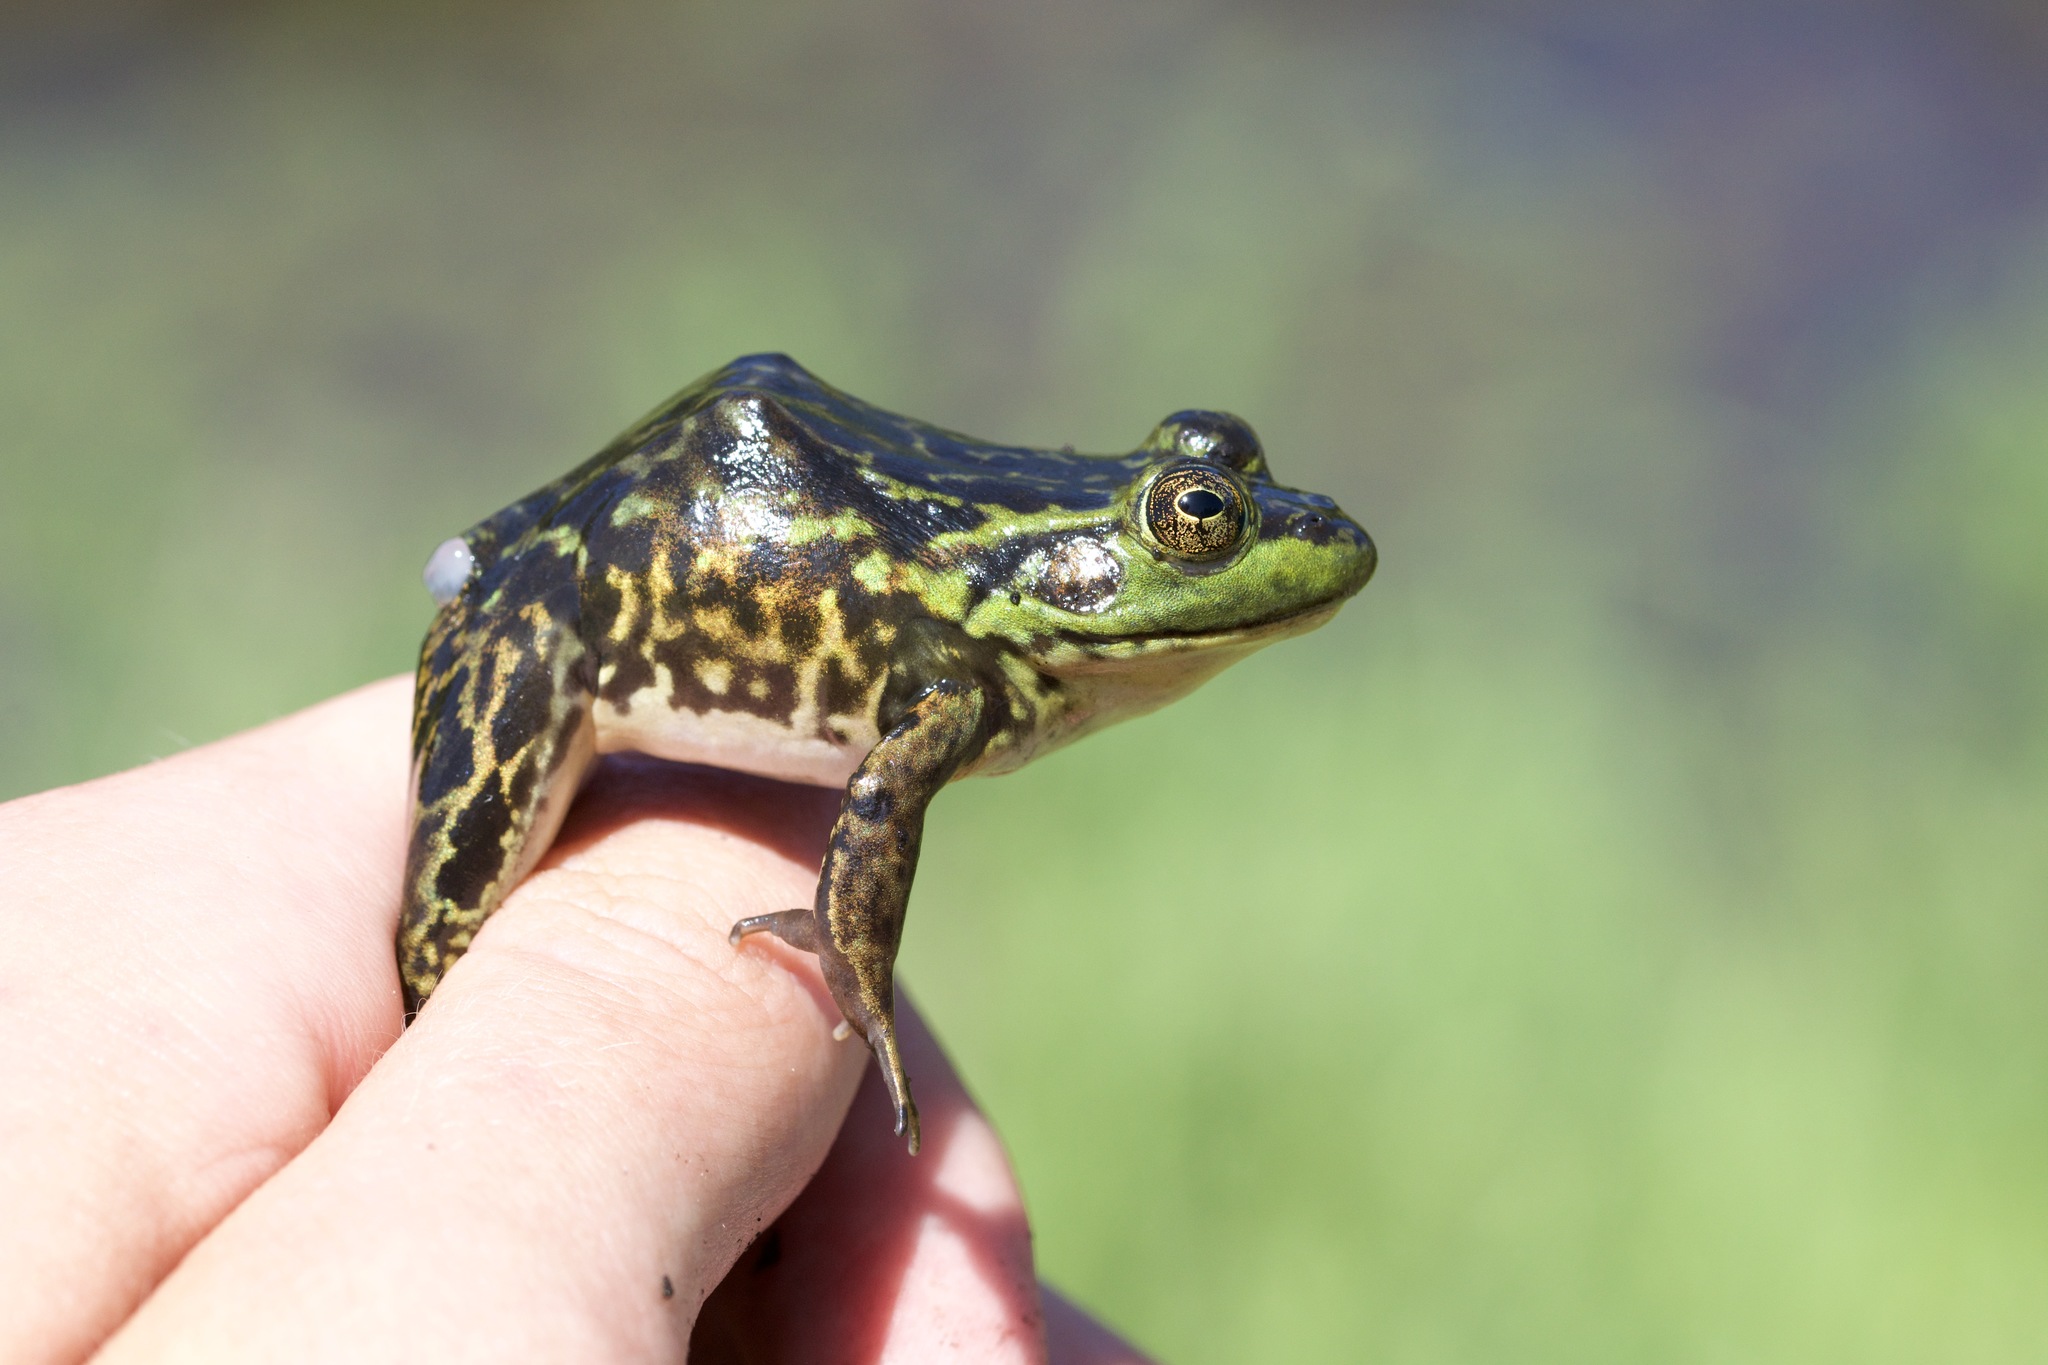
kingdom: Animalia
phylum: Chordata
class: Amphibia
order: Anura
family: Ranidae
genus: Lithobates
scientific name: Lithobates septentrionalis
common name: Mink frog
